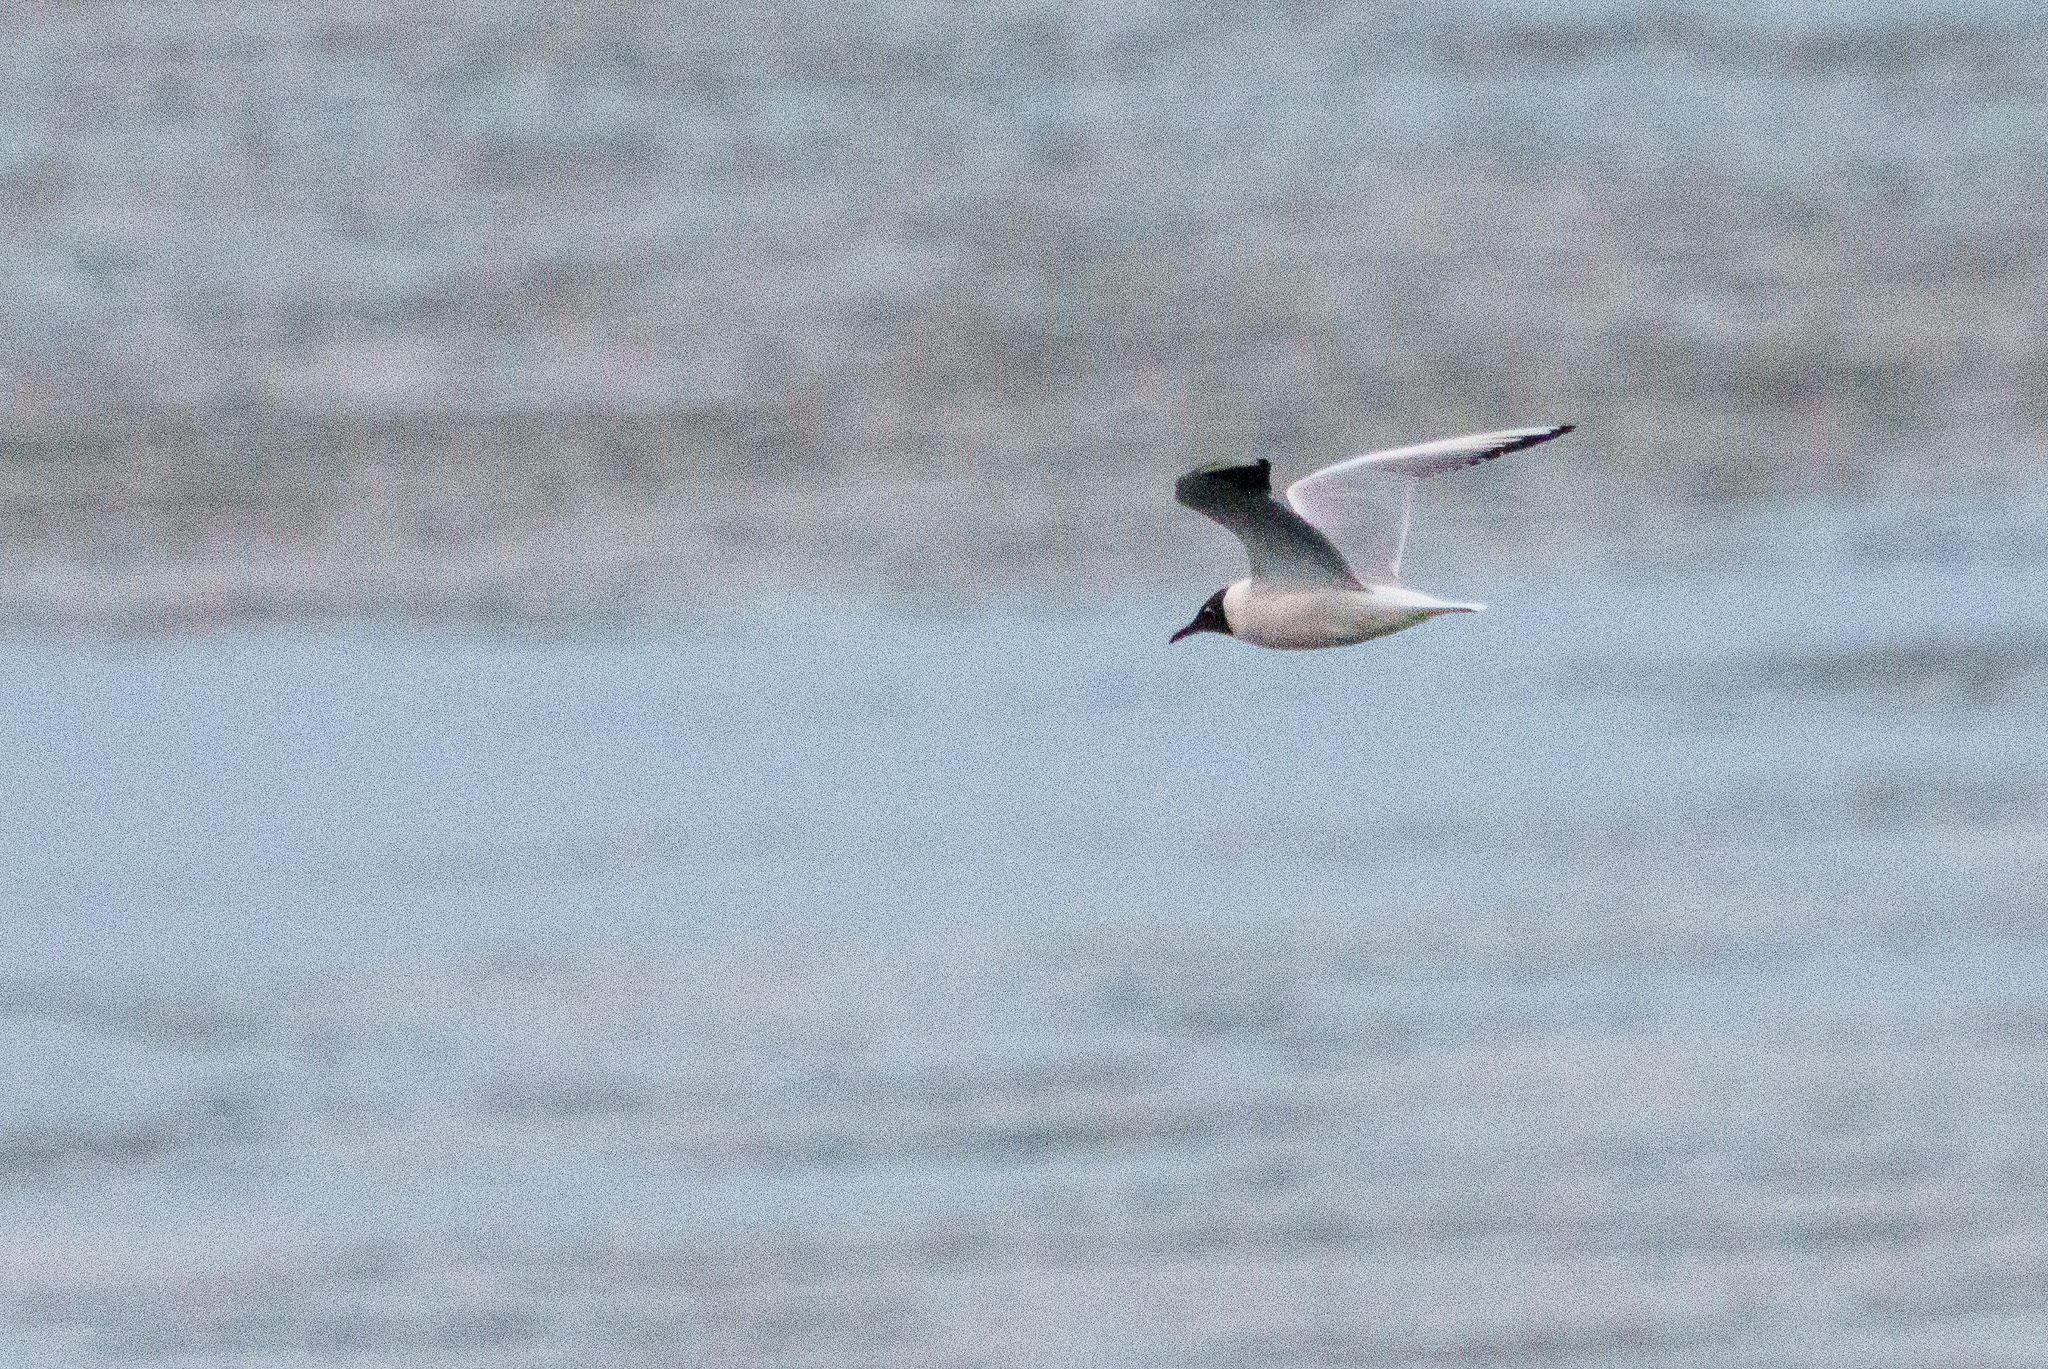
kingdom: Animalia
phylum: Chordata
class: Aves
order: Charadriiformes
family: Laridae
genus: Chroicocephalus
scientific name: Chroicocephalus ridibundus
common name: Black-headed gull
